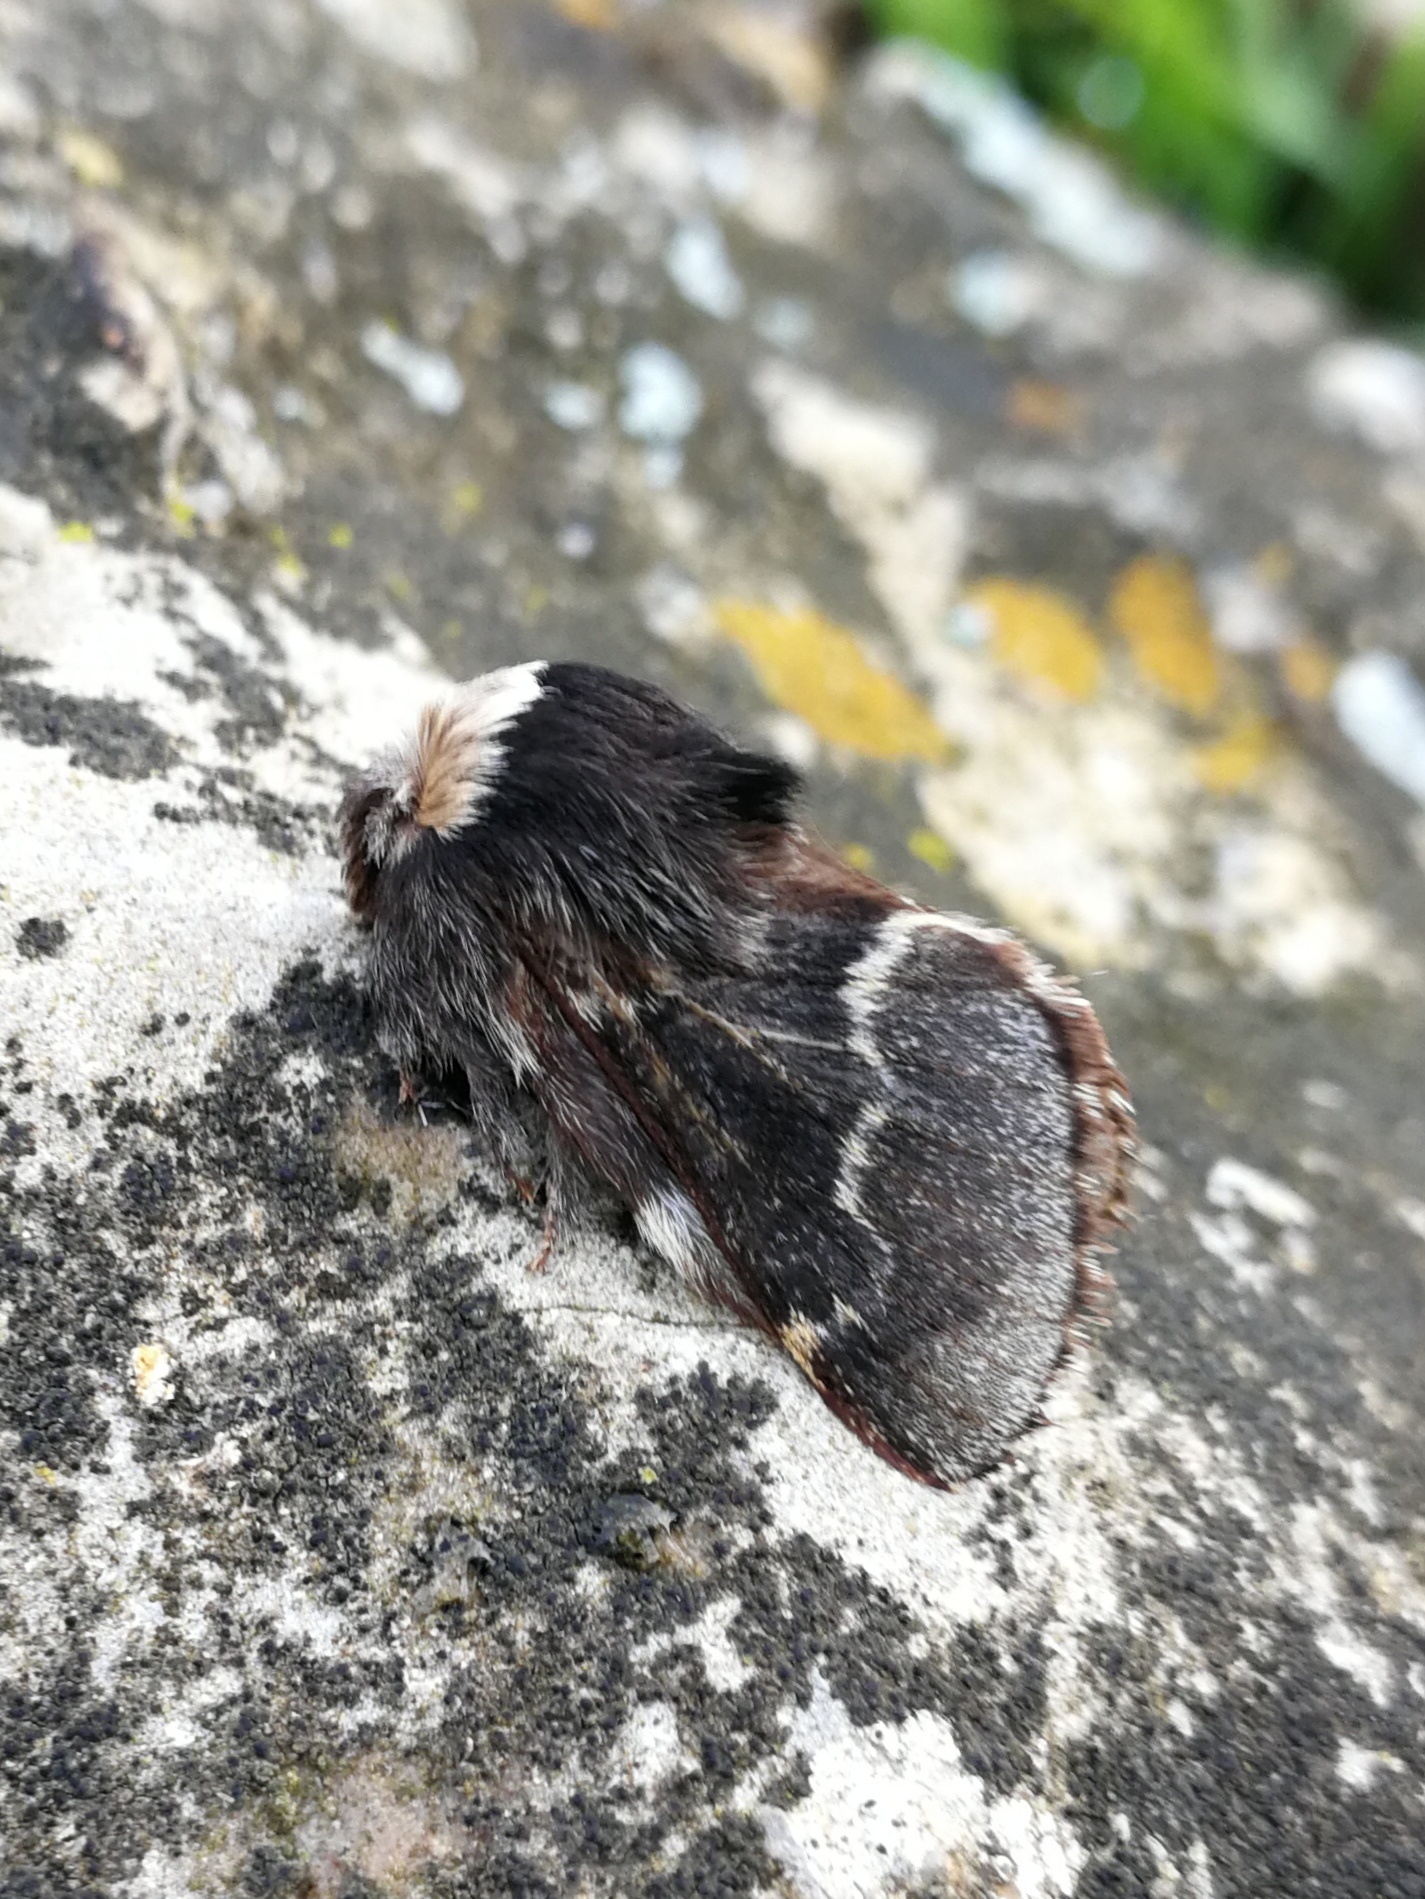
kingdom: Animalia
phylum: Arthropoda
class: Insecta
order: Lepidoptera
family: Lasiocampidae
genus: Poecilocampa
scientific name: Poecilocampa populi
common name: December moth
